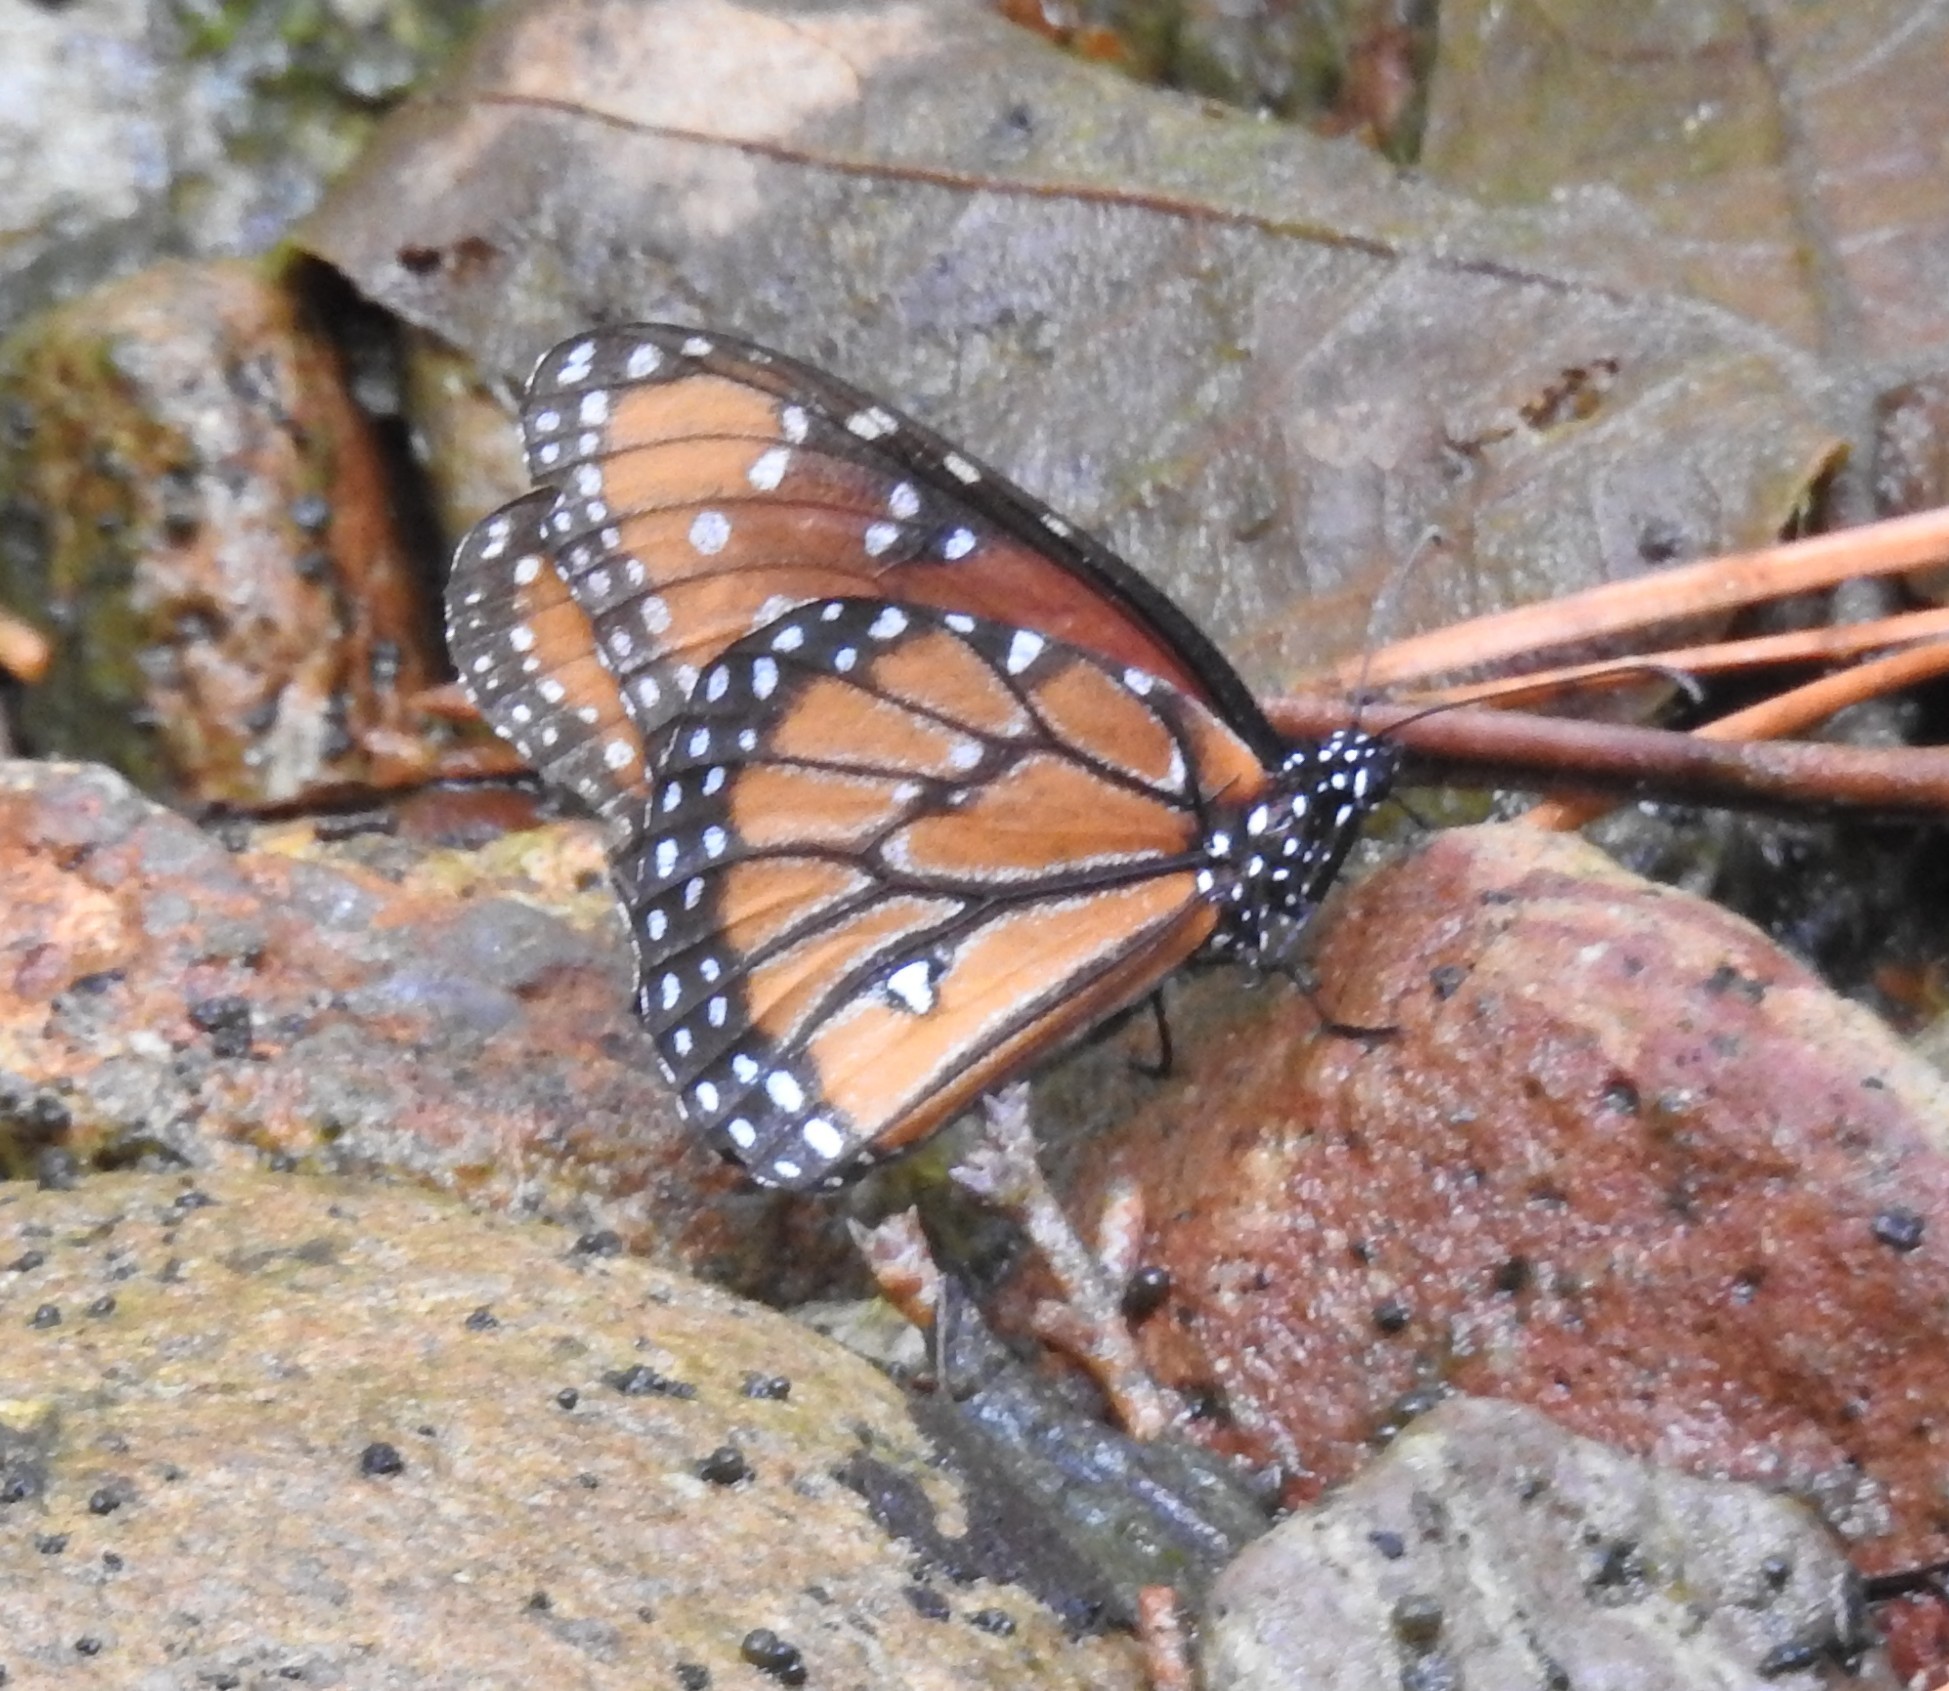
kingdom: Animalia
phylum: Arthropoda
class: Insecta
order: Lepidoptera
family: Nymphalidae
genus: Danaus
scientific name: Danaus gilippus
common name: Queen
